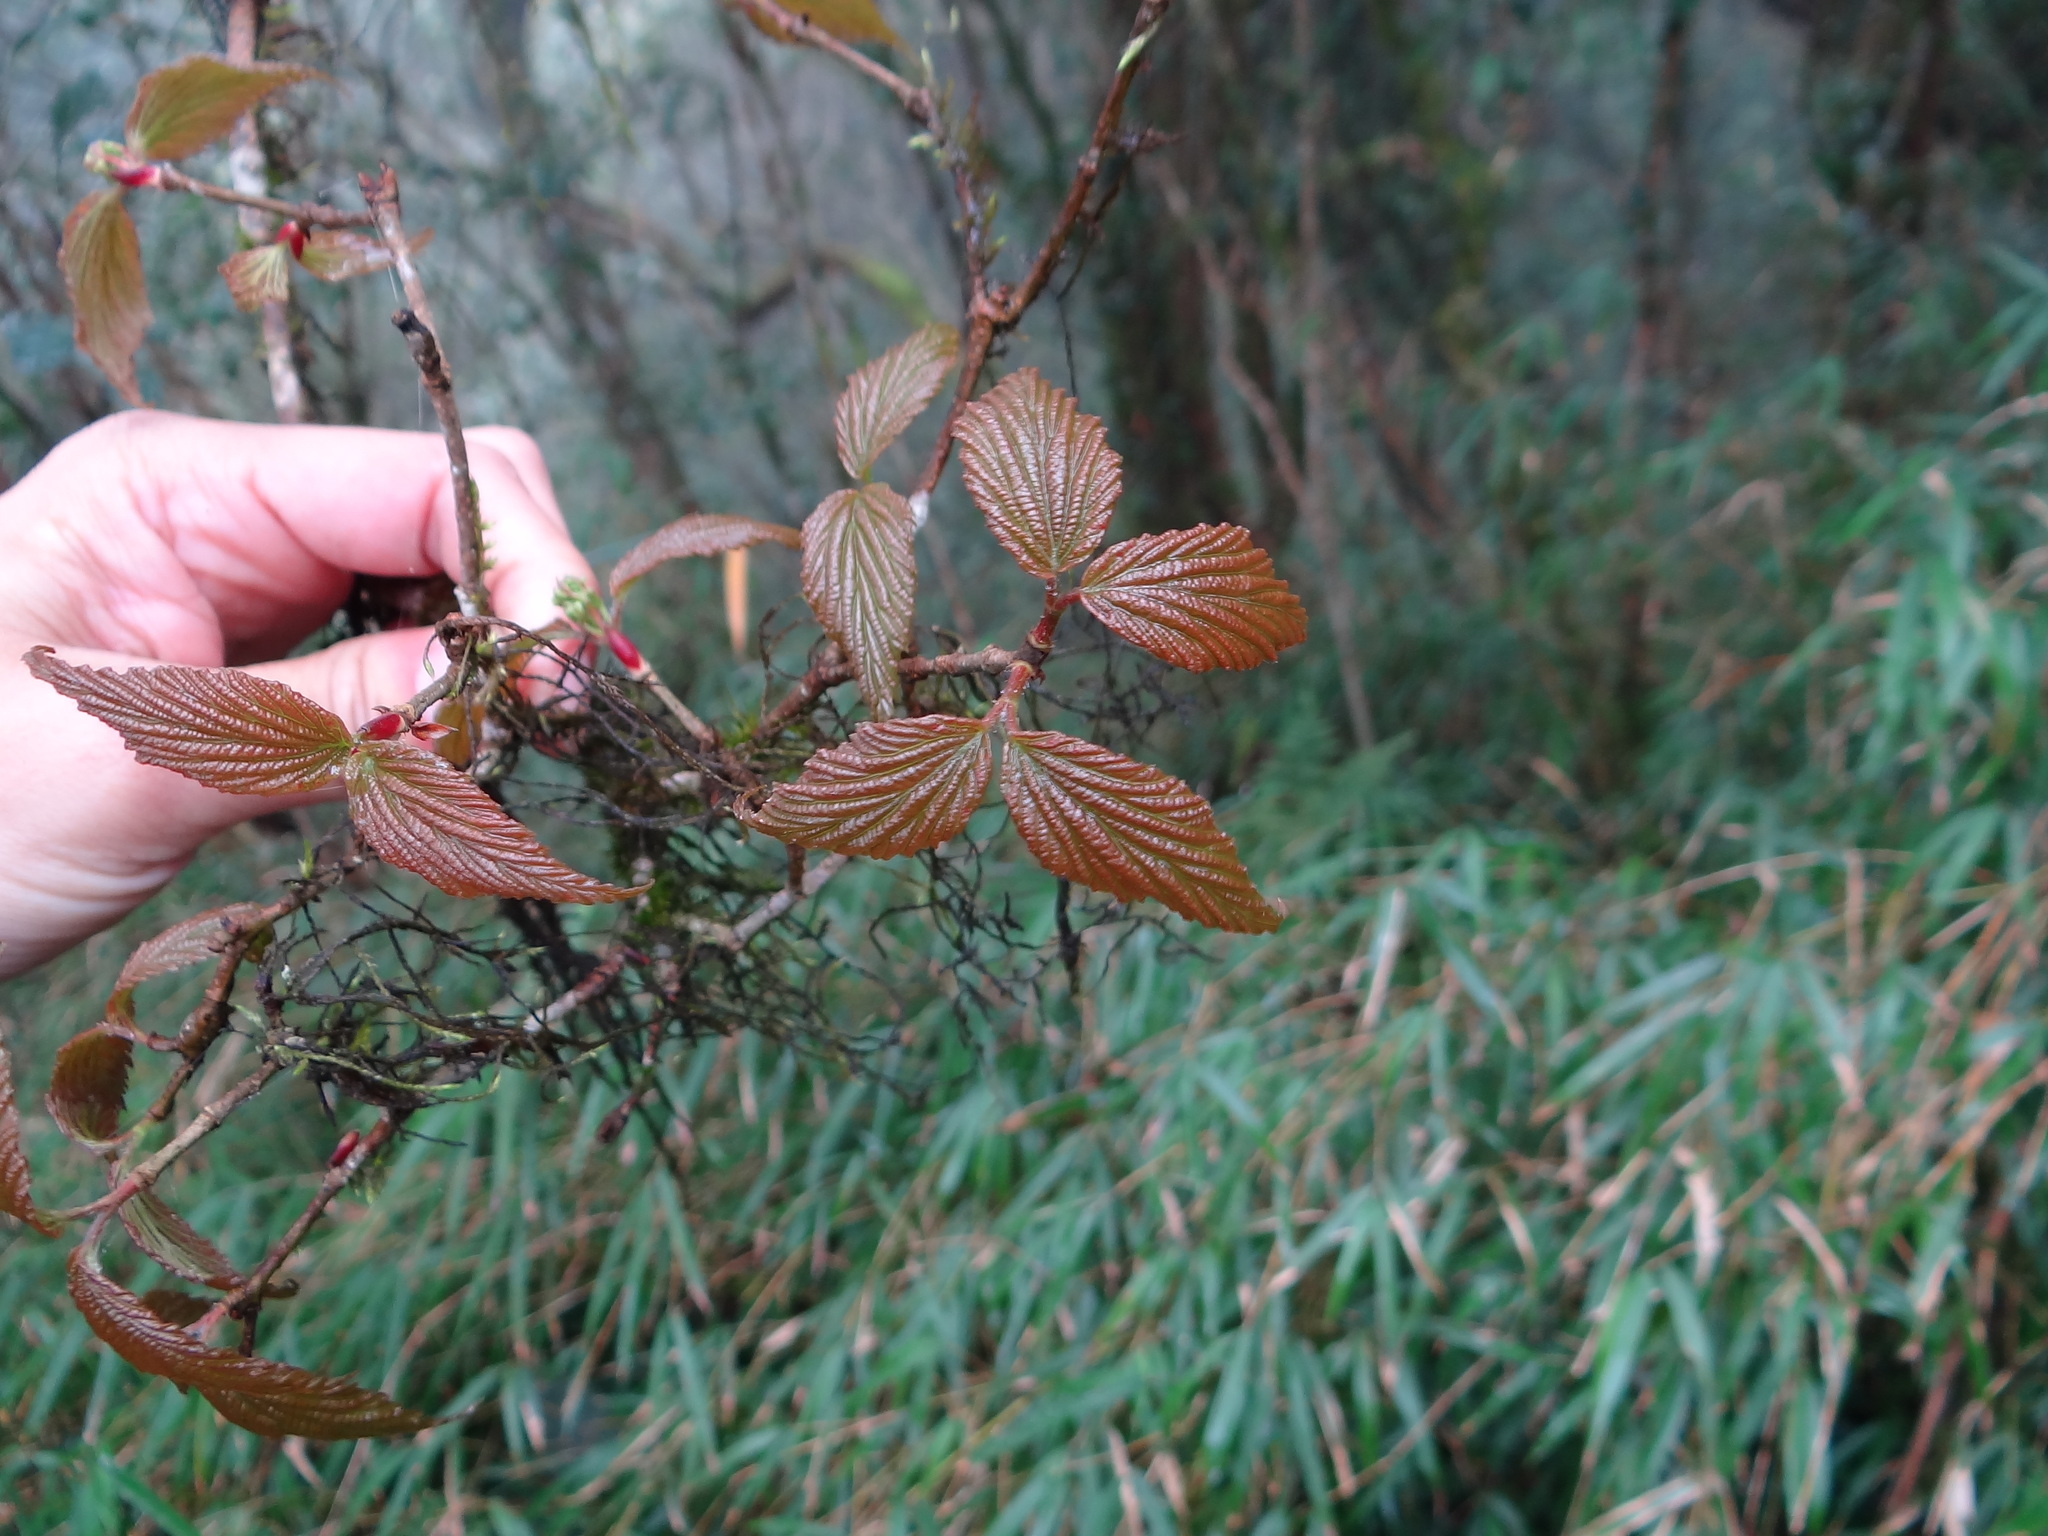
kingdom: Plantae
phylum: Tracheophyta
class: Magnoliopsida
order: Dipsacales
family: Viburnaceae
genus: Viburnum
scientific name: Viburnum luzonicum
